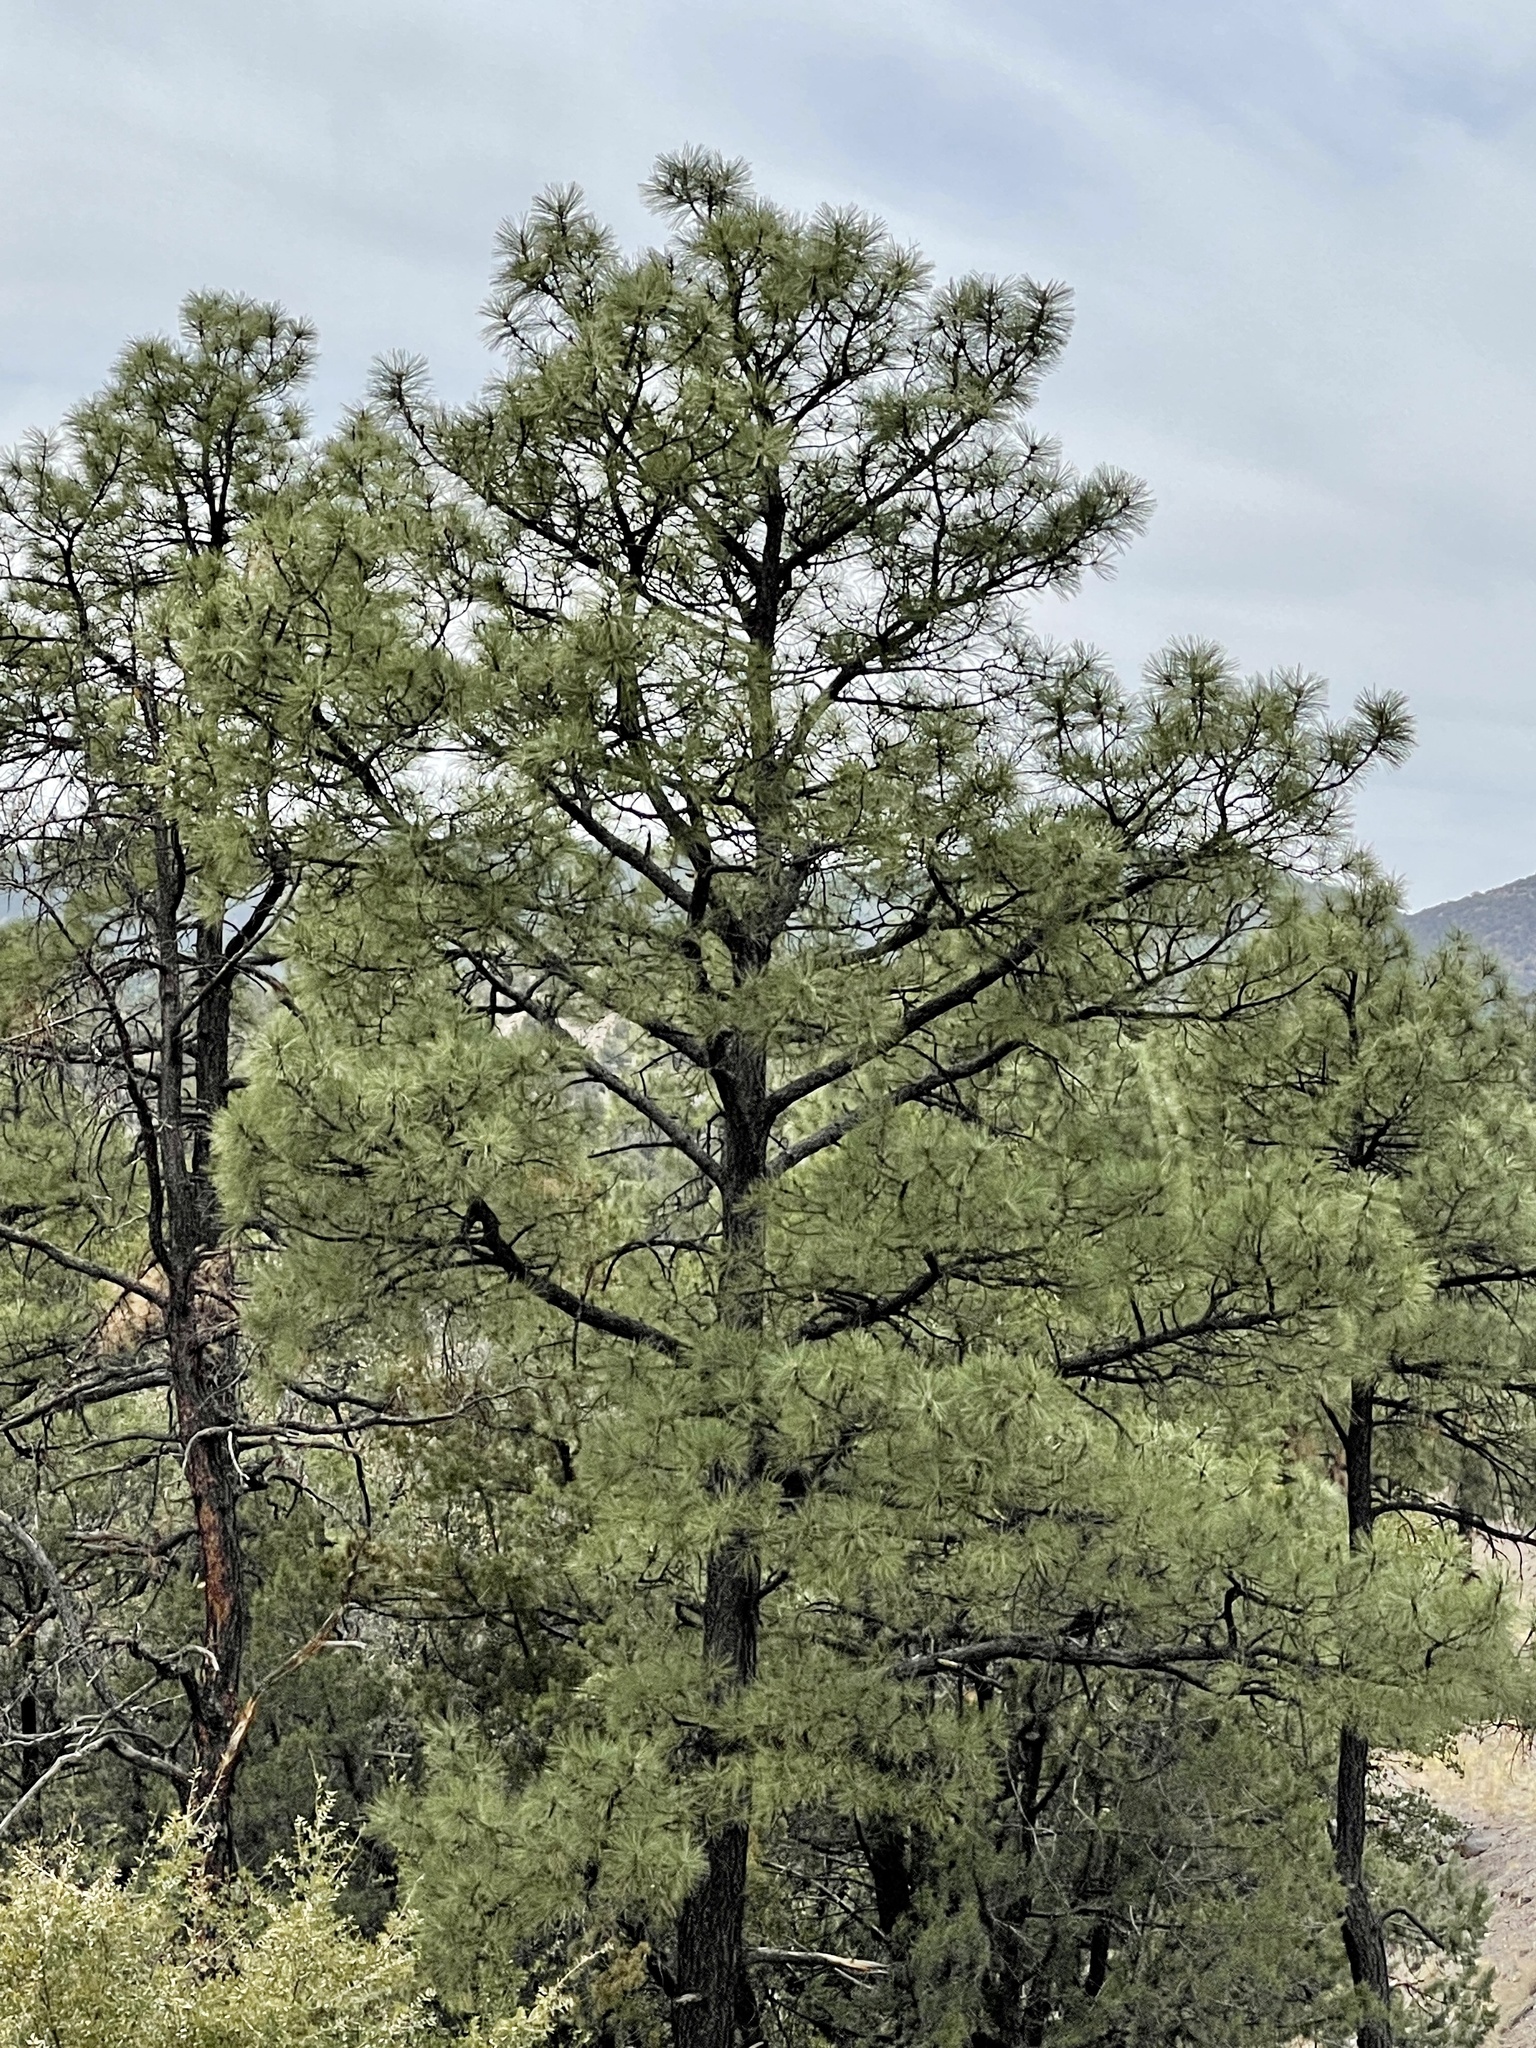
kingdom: Plantae
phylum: Tracheophyta
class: Pinopsida
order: Pinales
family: Pinaceae
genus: Pinus
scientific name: Pinus ponderosa
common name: Western yellow-pine
